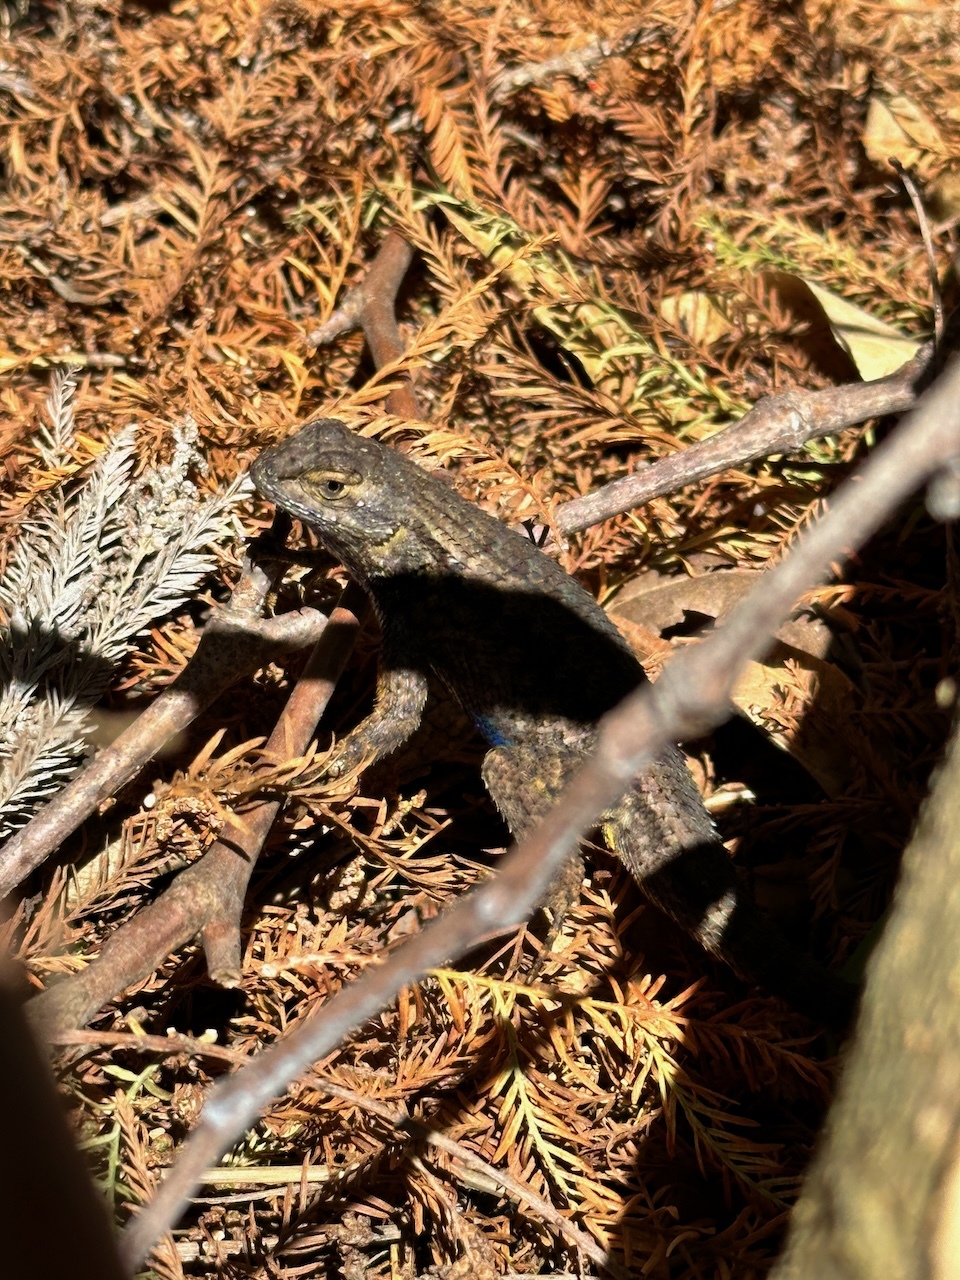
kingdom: Animalia
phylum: Chordata
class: Squamata
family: Phrynosomatidae
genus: Sceloporus
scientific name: Sceloporus occidentalis
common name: Western fence lizard
